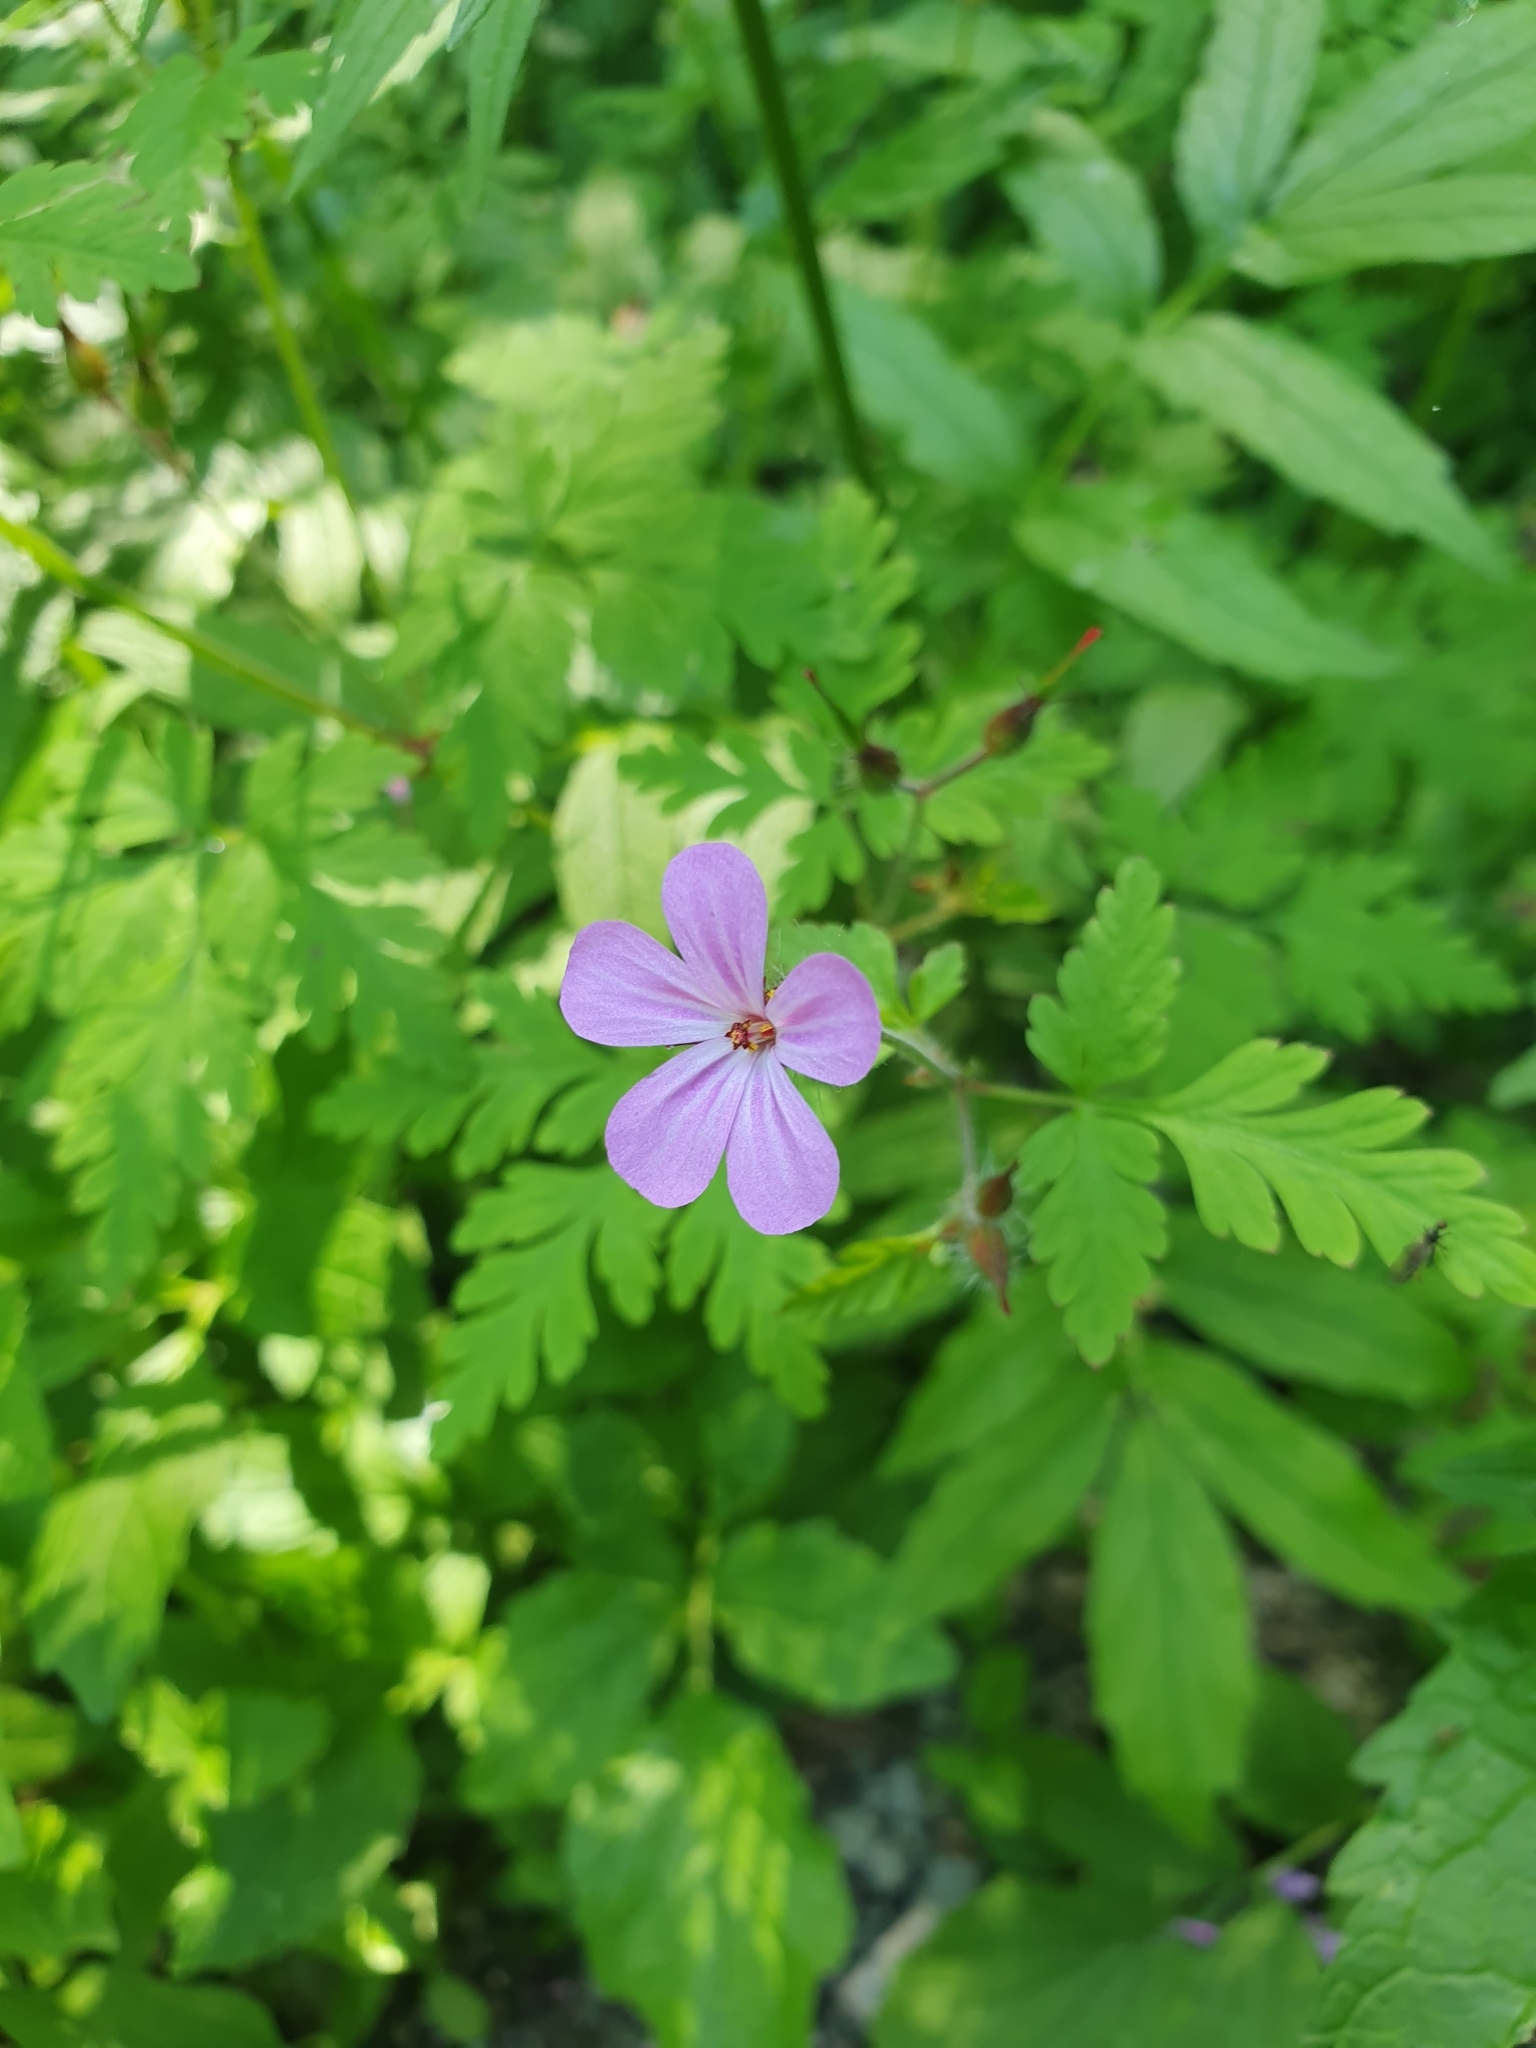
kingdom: Plantae
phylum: Tracheophyta
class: Magnoliopsida
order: Geraniales
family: Geraniaceae
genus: Geranium
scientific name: Geranium robertianum
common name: Herb-robert
